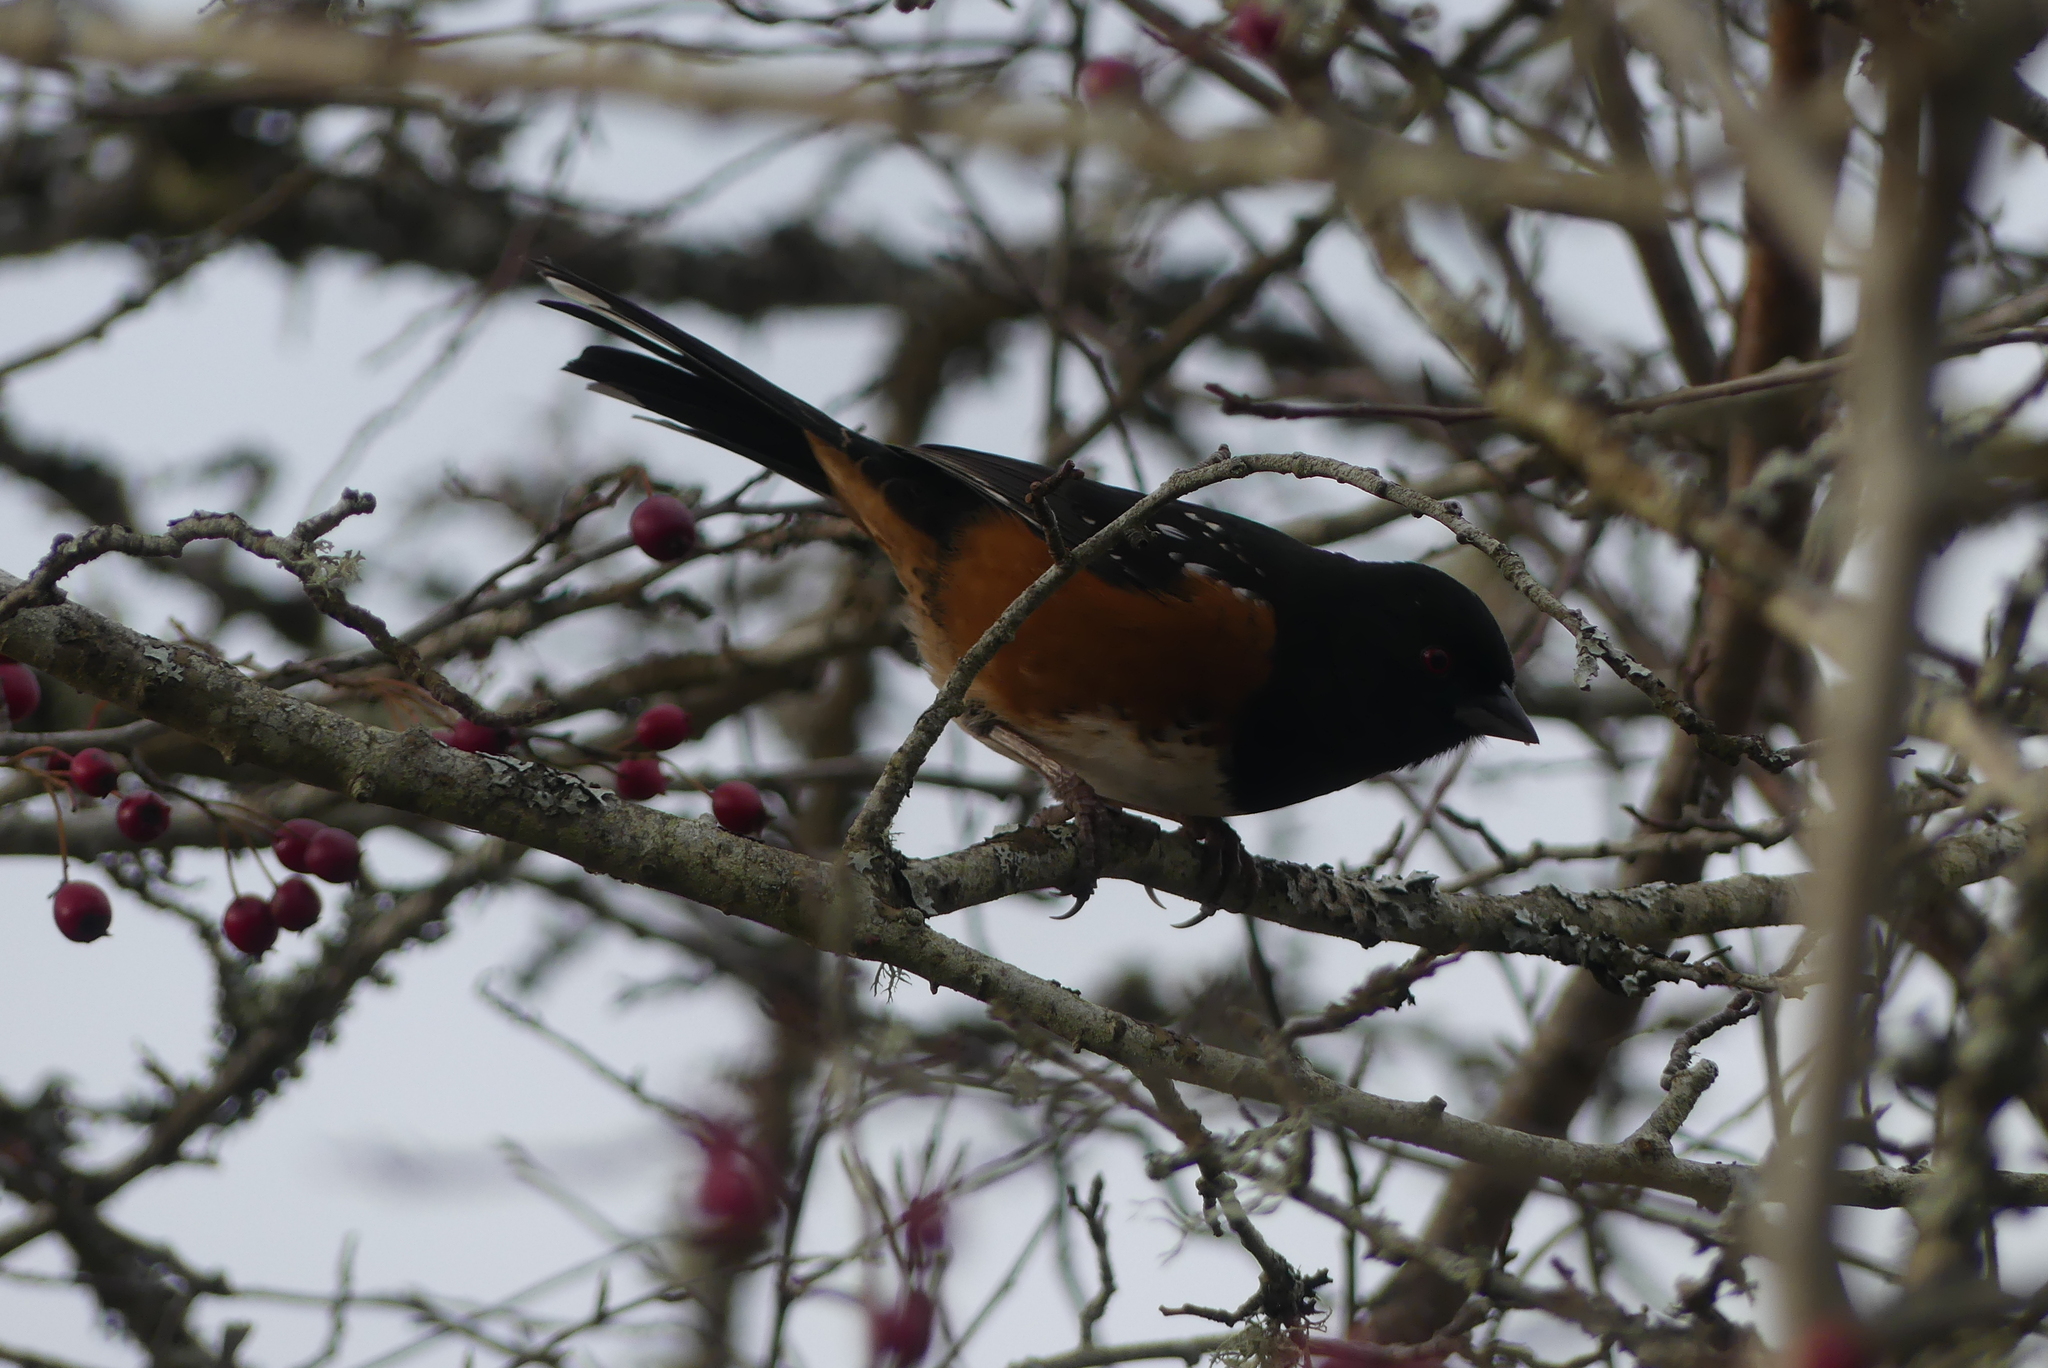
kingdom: Animalia
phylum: Chordata
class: Aves
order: Passeriformes
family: Passerellidae
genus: Pipilo
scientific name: Pipilo maculatus
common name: Spotted towhee
